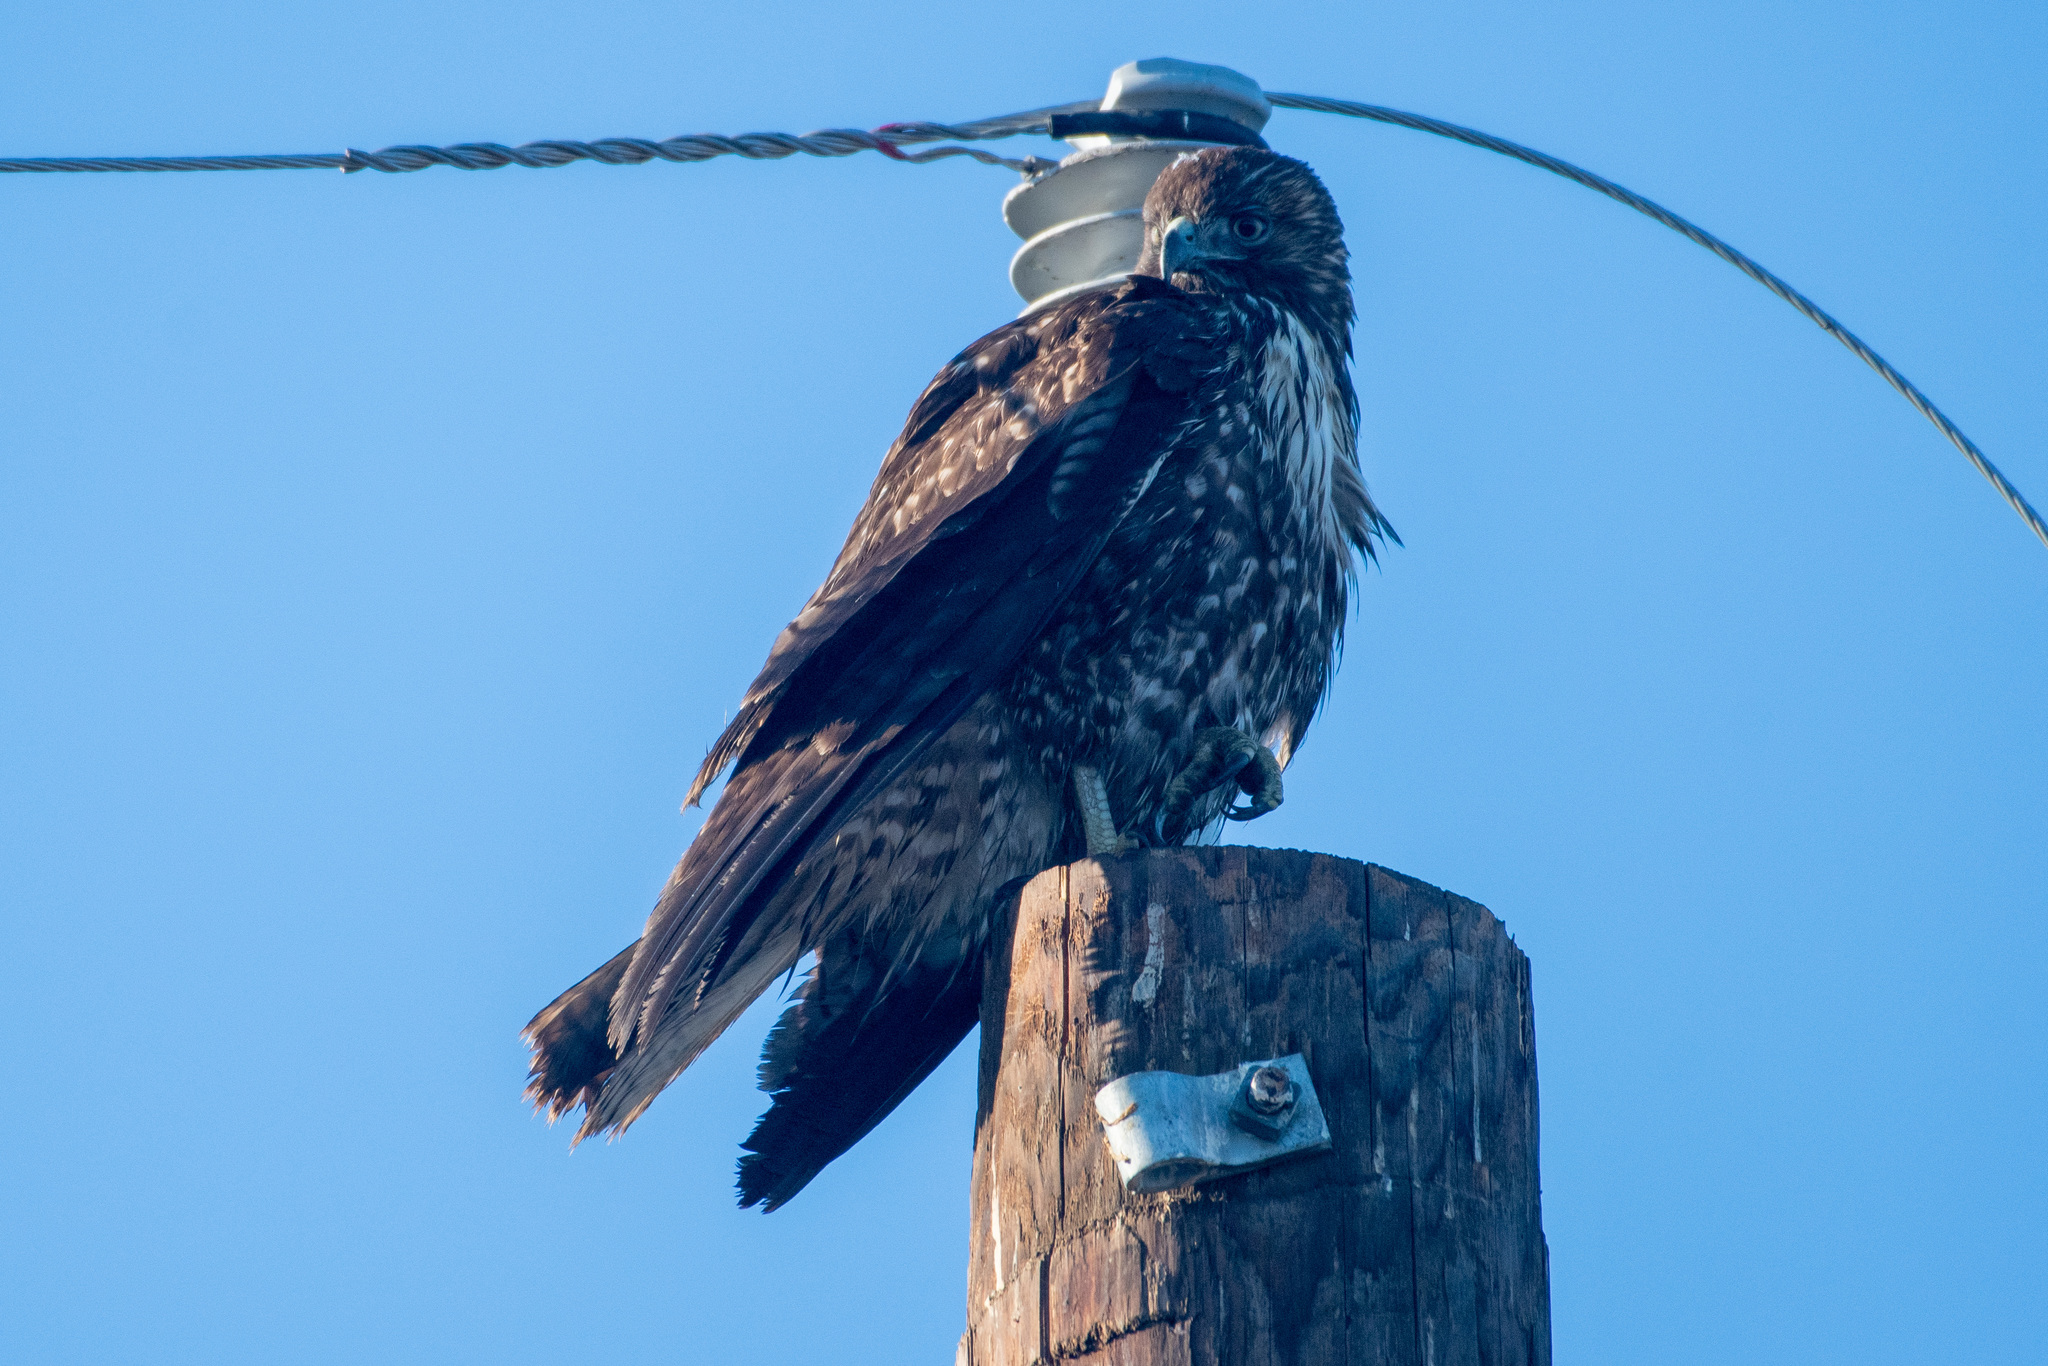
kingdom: Animalia
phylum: Chordata
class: Aves
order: Accipitriformes
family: Accipitridae
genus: Buteo
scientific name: Buteo jamaicensis
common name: Red-tailed hawk
